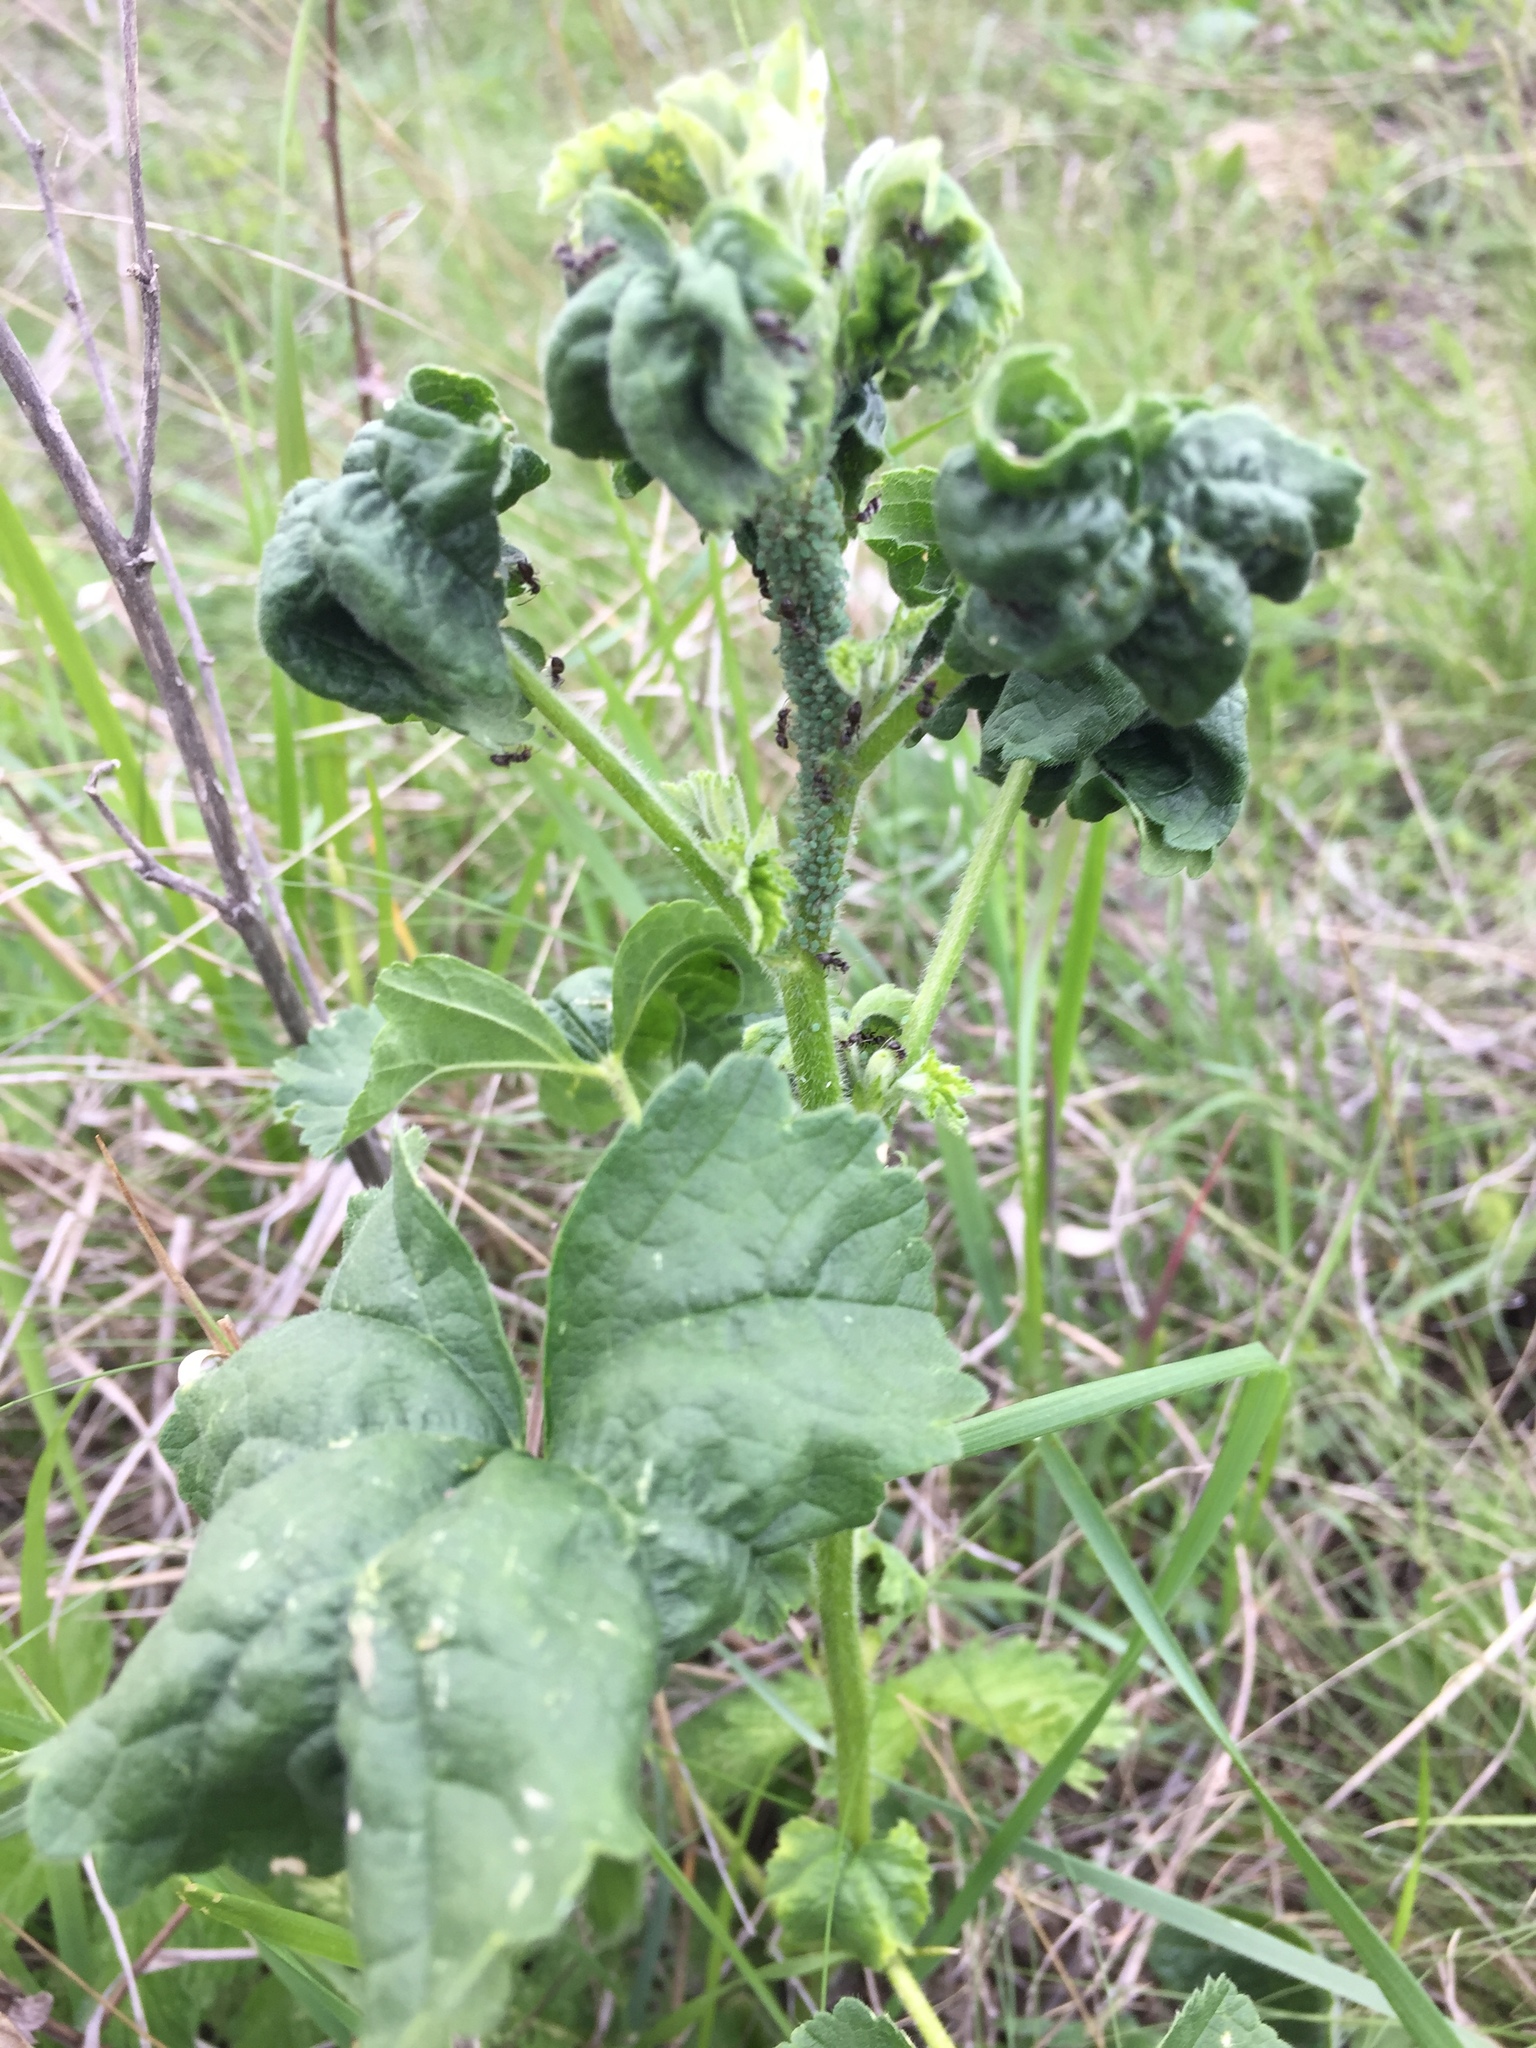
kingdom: Plantae
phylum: Tracheophyta
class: Magnoliopsida
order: Malvales
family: Malvaceae
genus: Malva
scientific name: Malva thuringiaca
